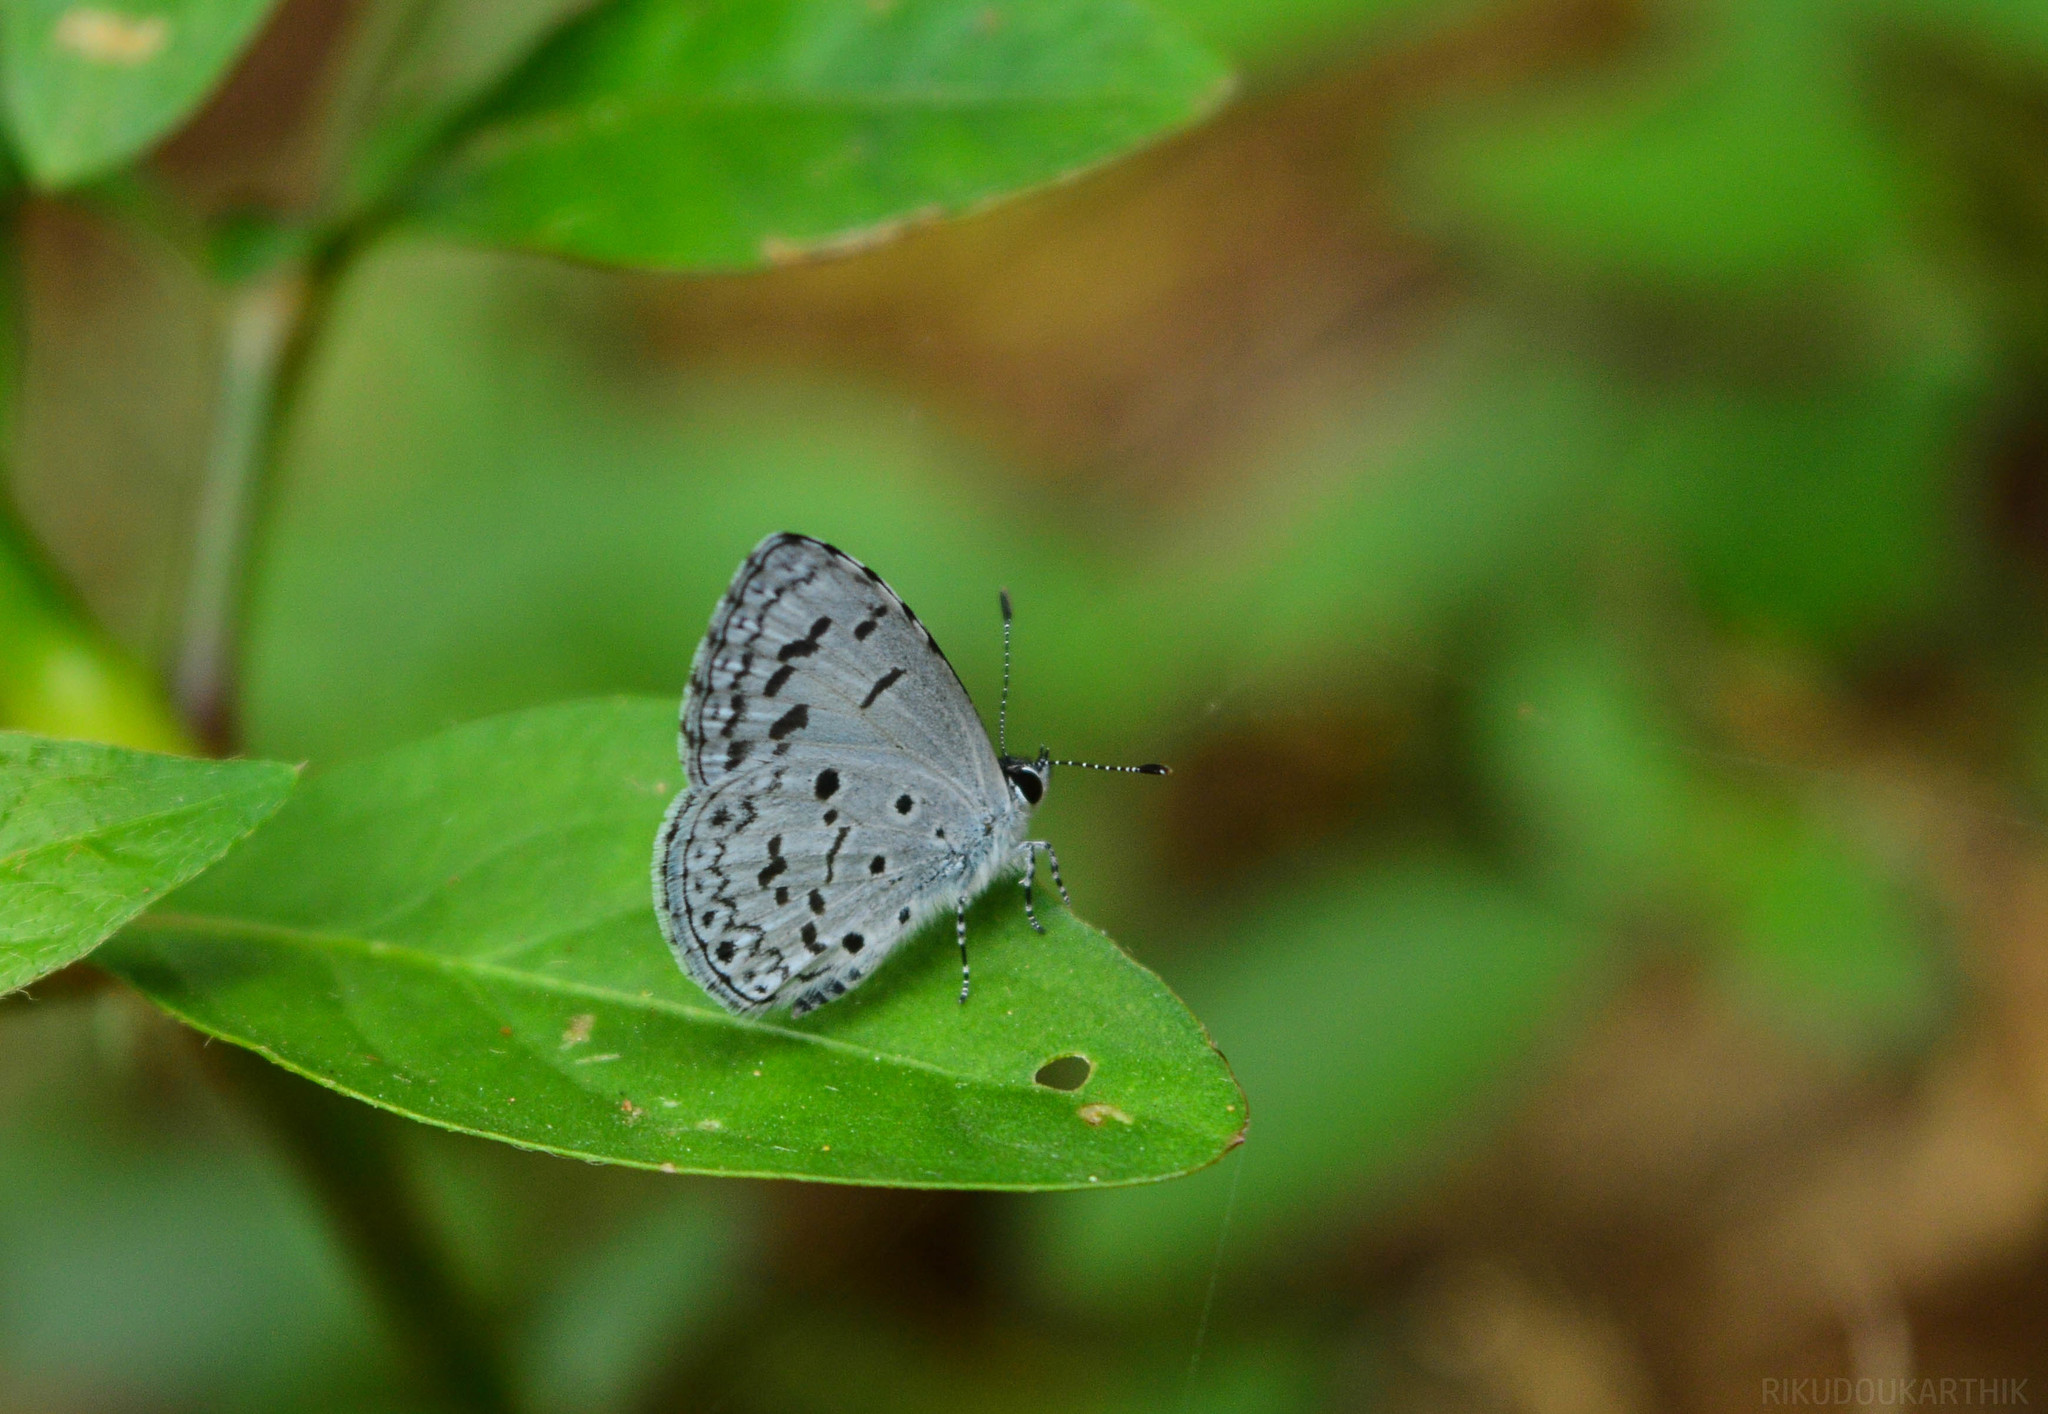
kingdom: Animalia
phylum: Arthropoda
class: Insecta
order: Lepidoptera
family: Lycaenidae
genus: Acytolepis
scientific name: Acytolepis puspa
